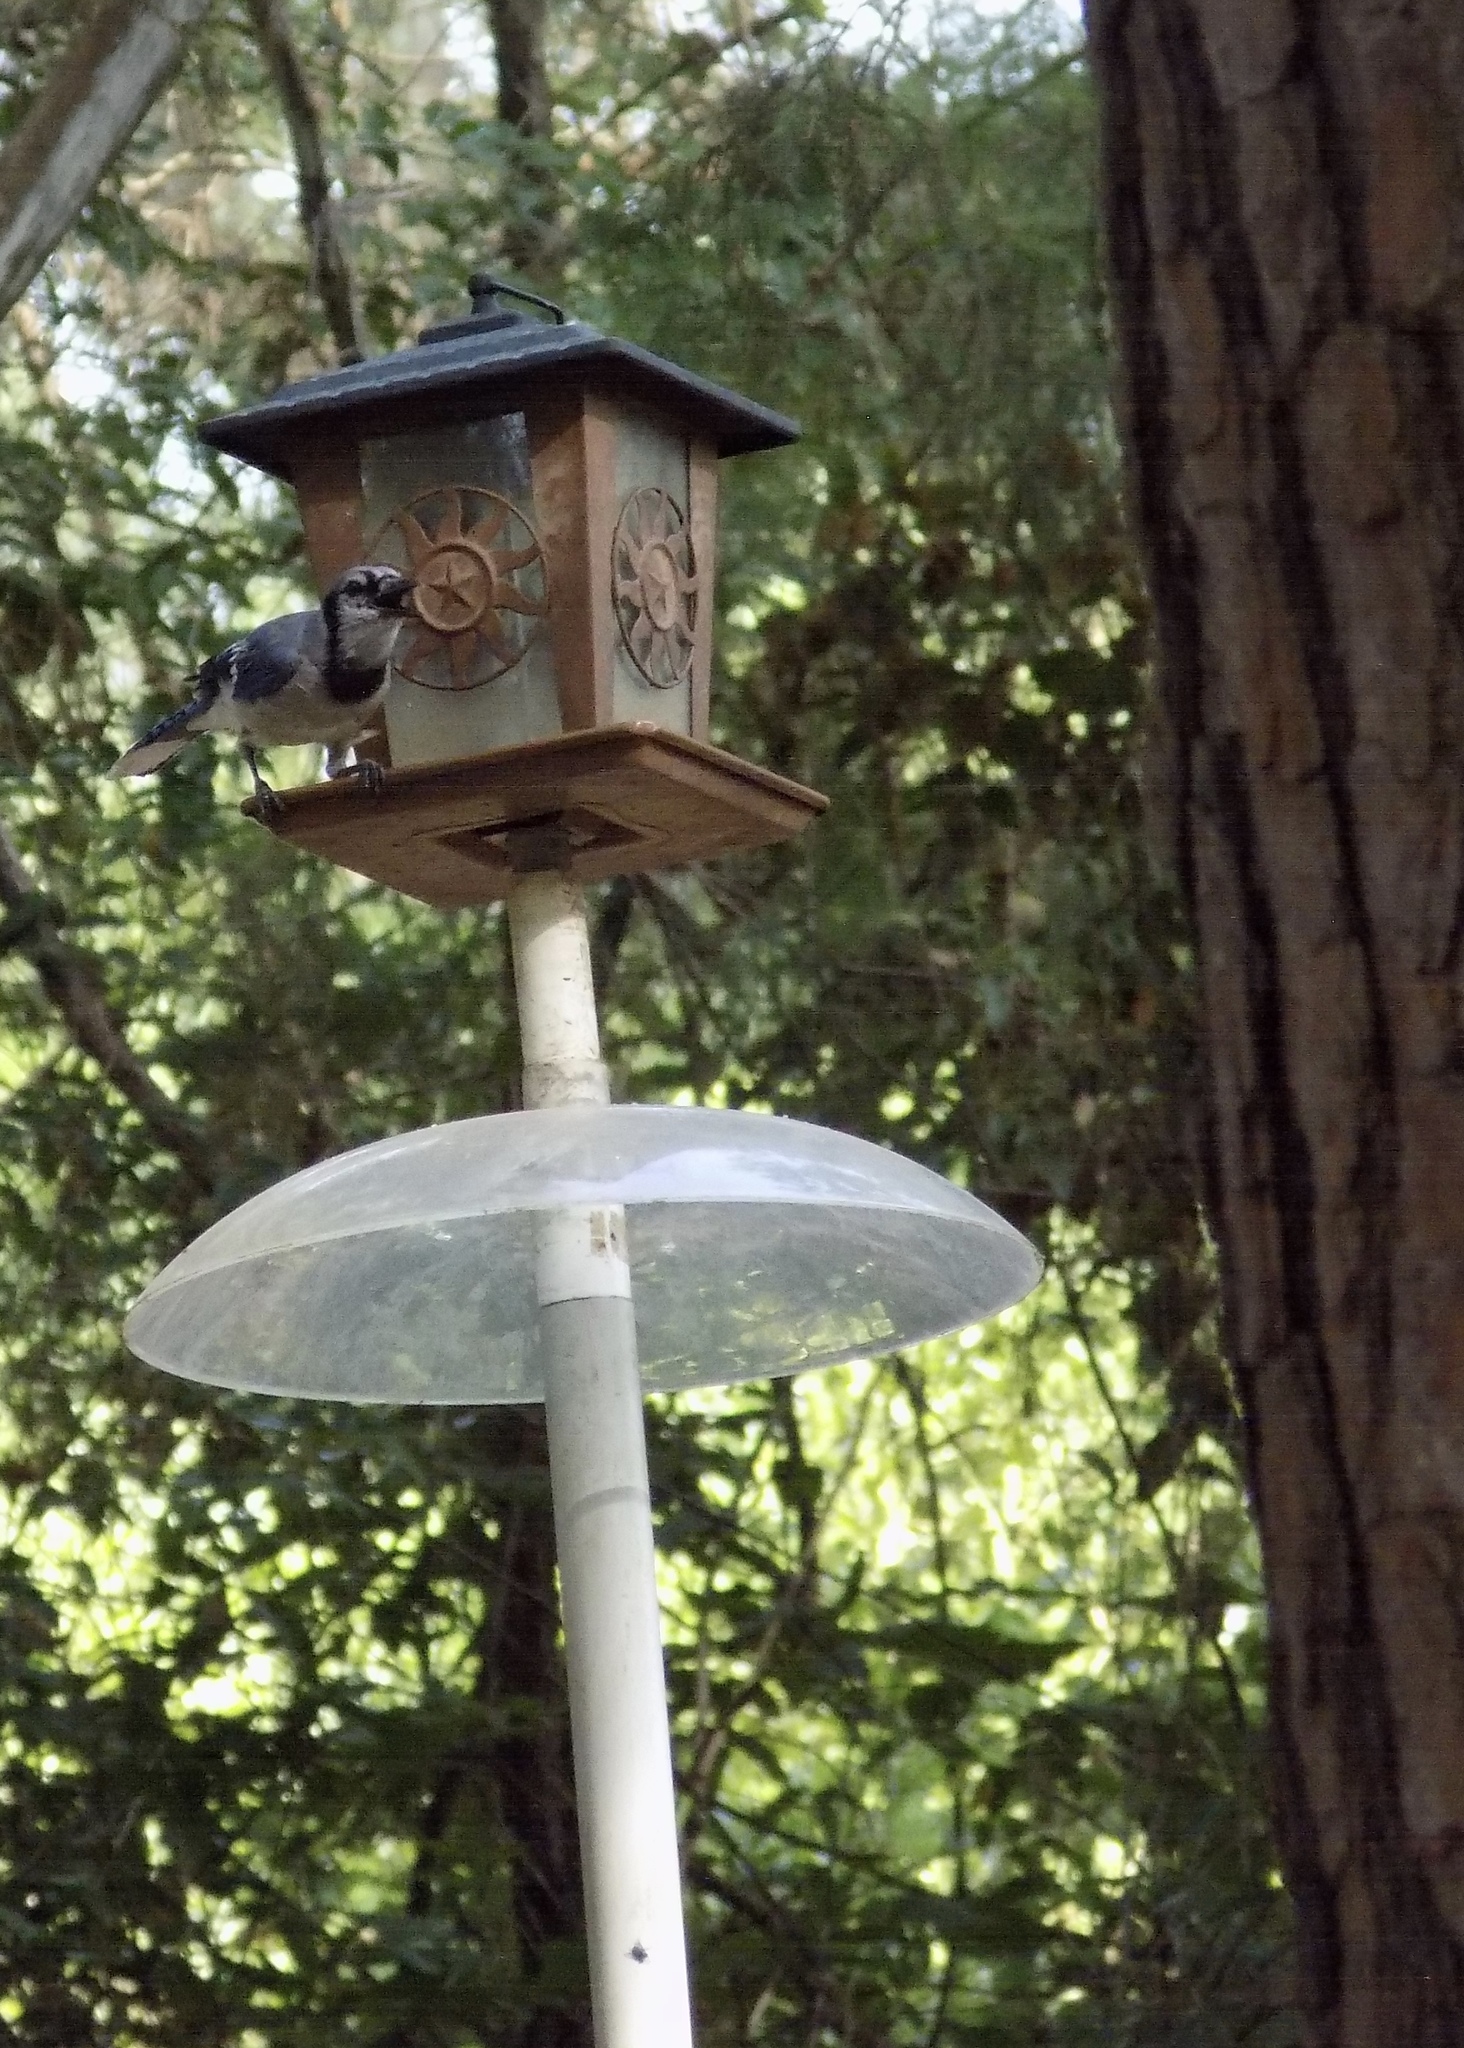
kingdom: Animalia
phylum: Chordata
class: Aves
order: Passeriformes
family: Corvidae
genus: Cyanocitta
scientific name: Cyanocitta cristata
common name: Blue jay
